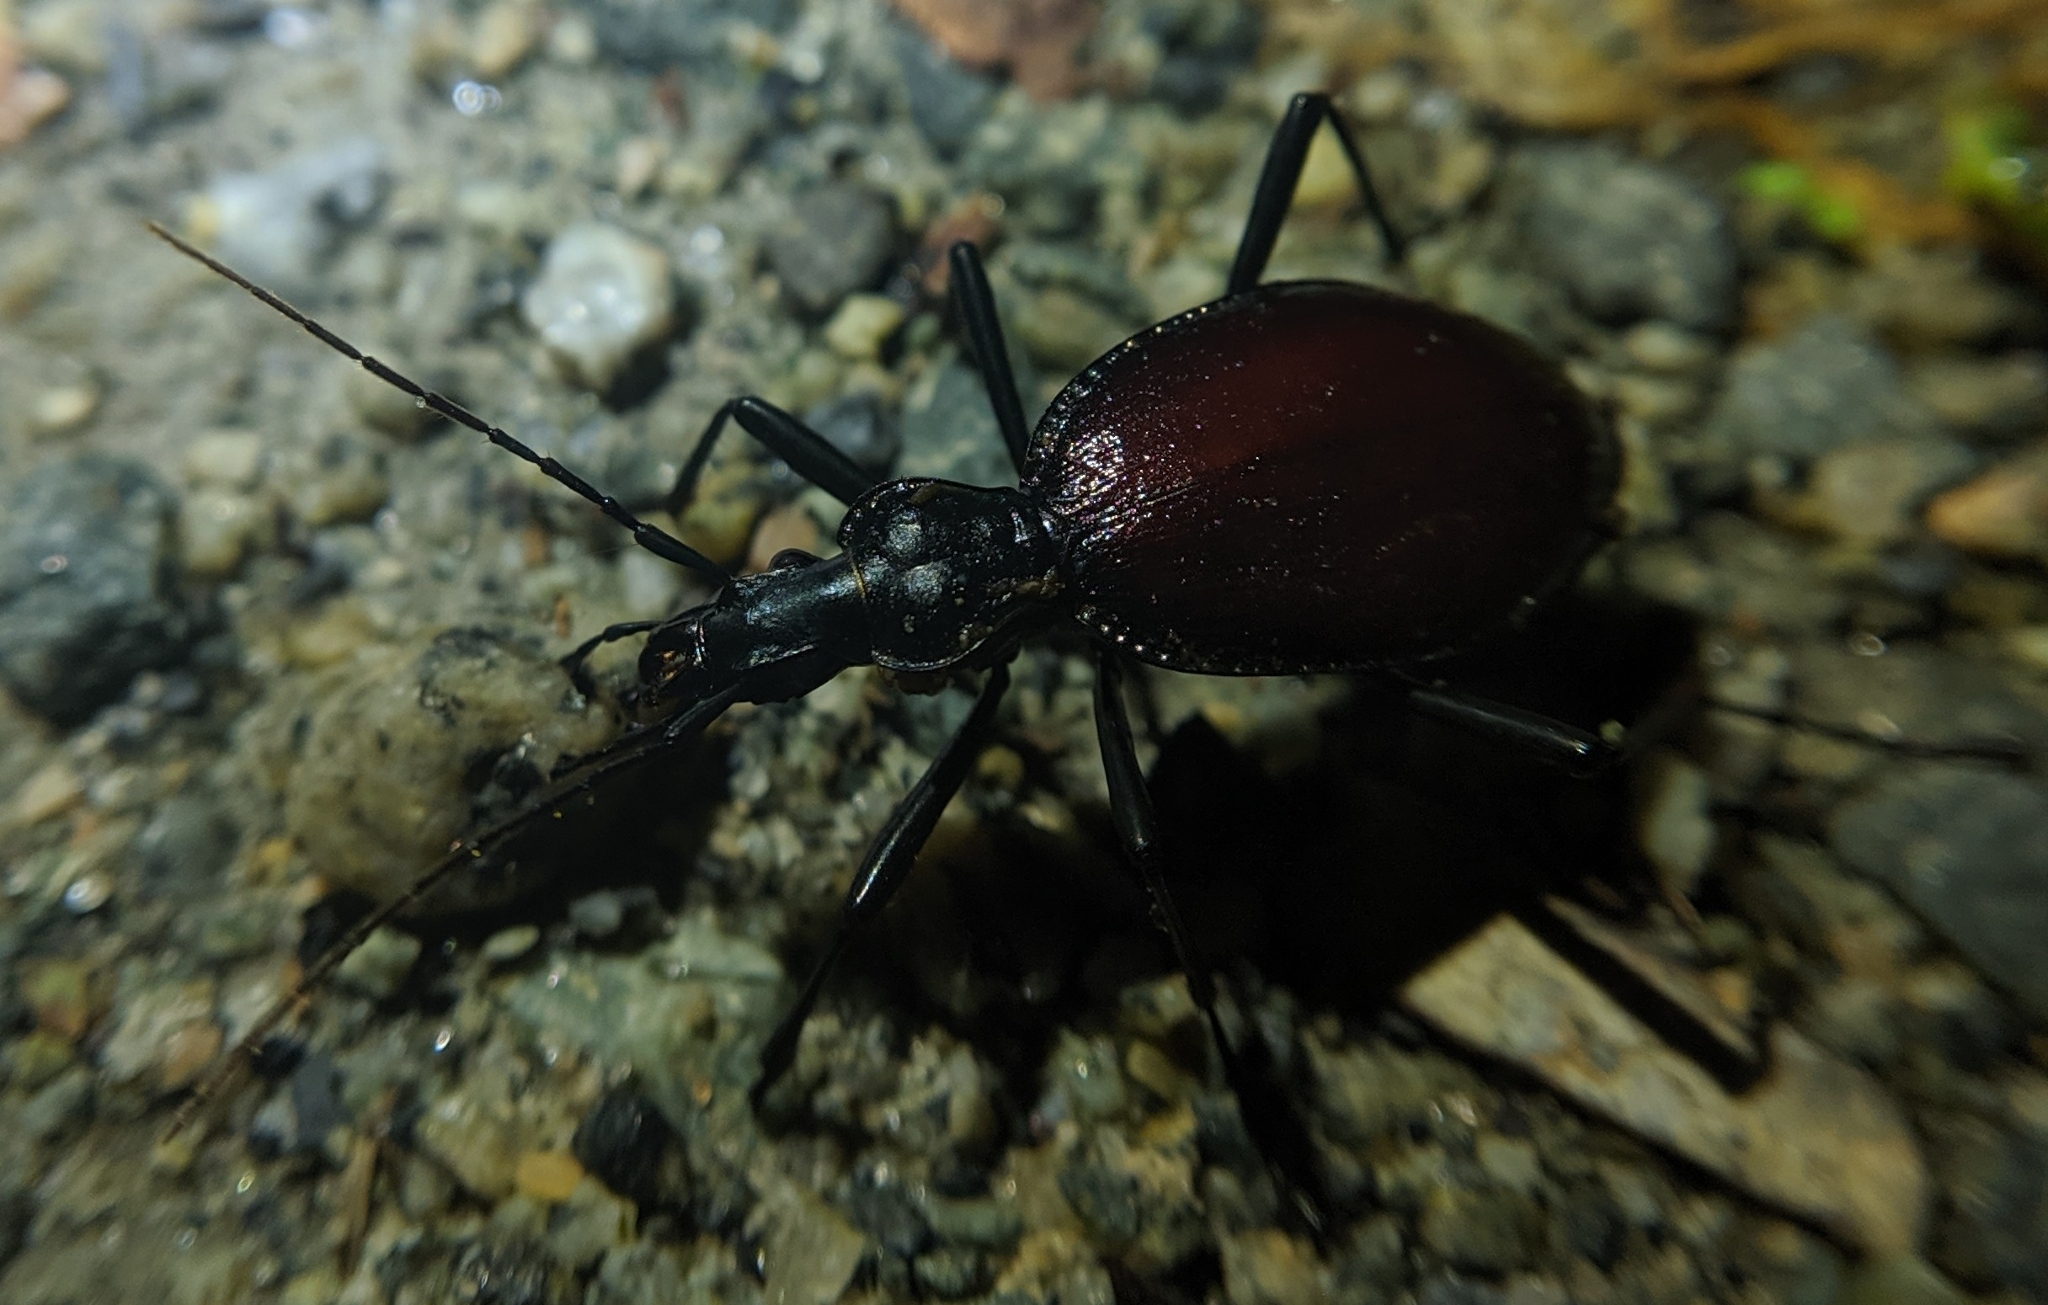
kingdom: Animalia
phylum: Arthropoda
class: Insecta
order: Coleoptera
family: Carabidae
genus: Scaphinotus
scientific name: Scaphinotus angusticollis
